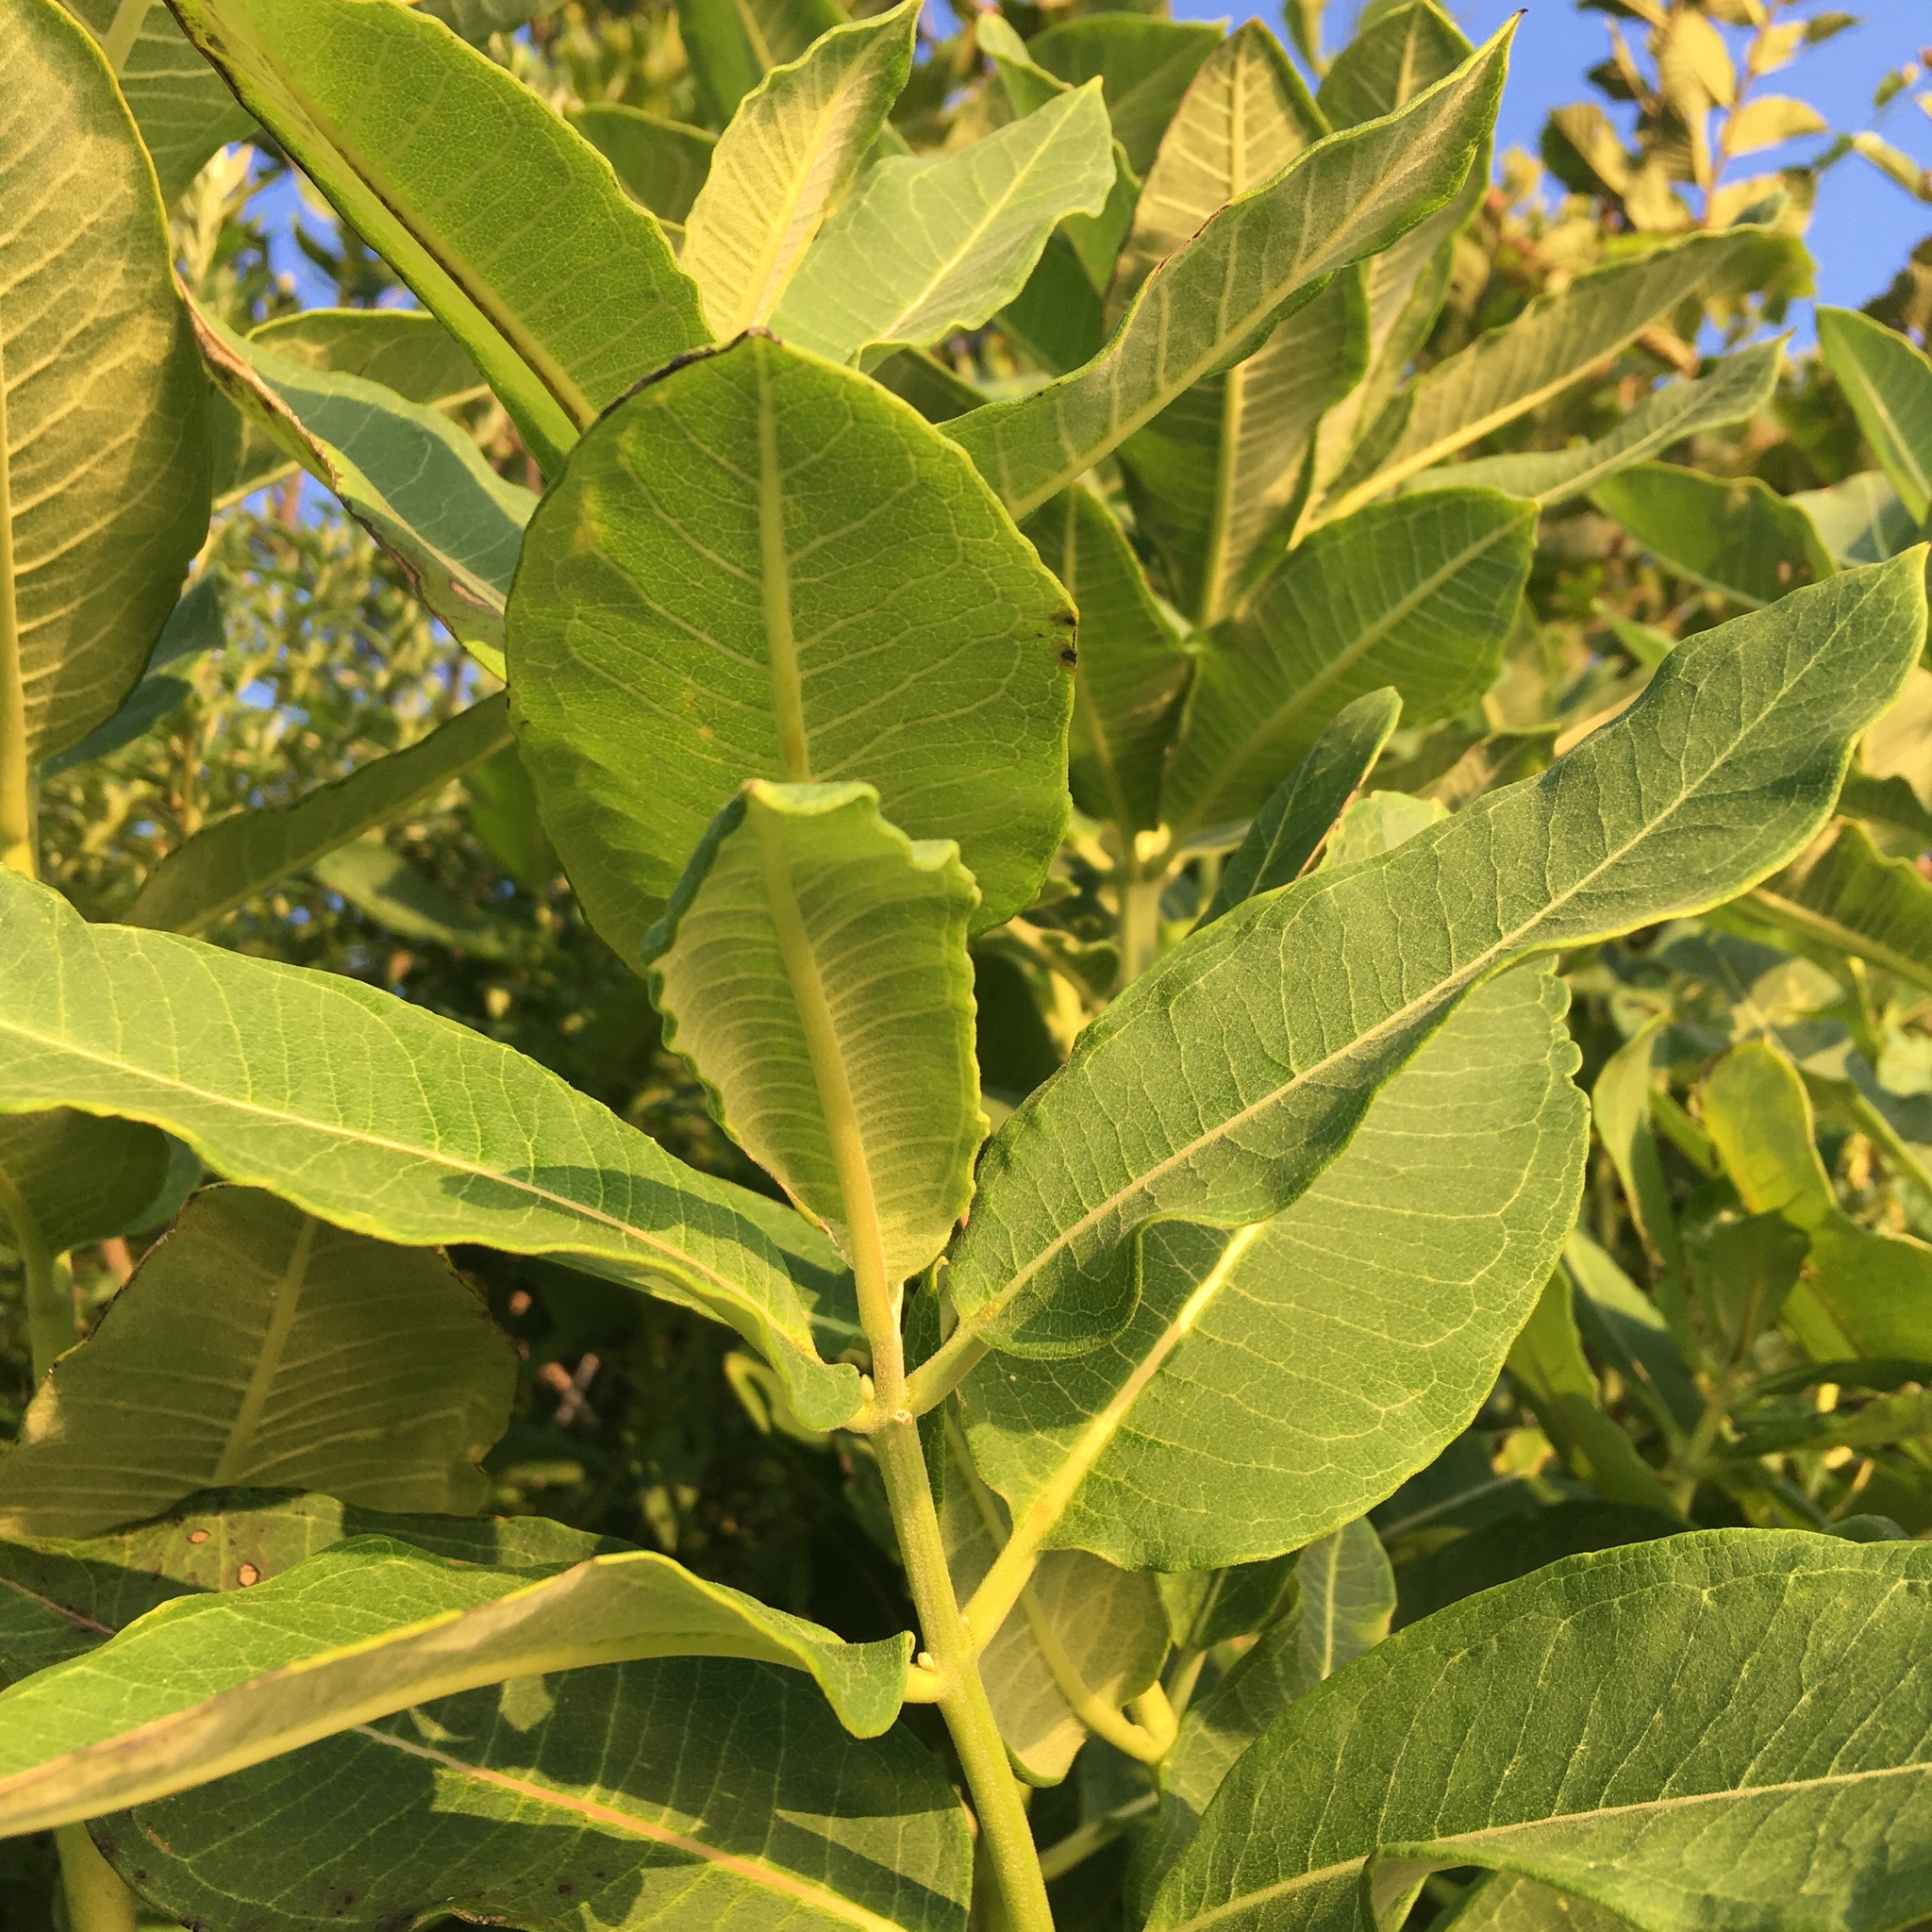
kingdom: Plantae
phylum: Tracheophyta
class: Magnoliopsida
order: Gentianales
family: Apocynaceae
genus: Asclepias
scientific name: Asclepias syriaca
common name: Common milkweed
